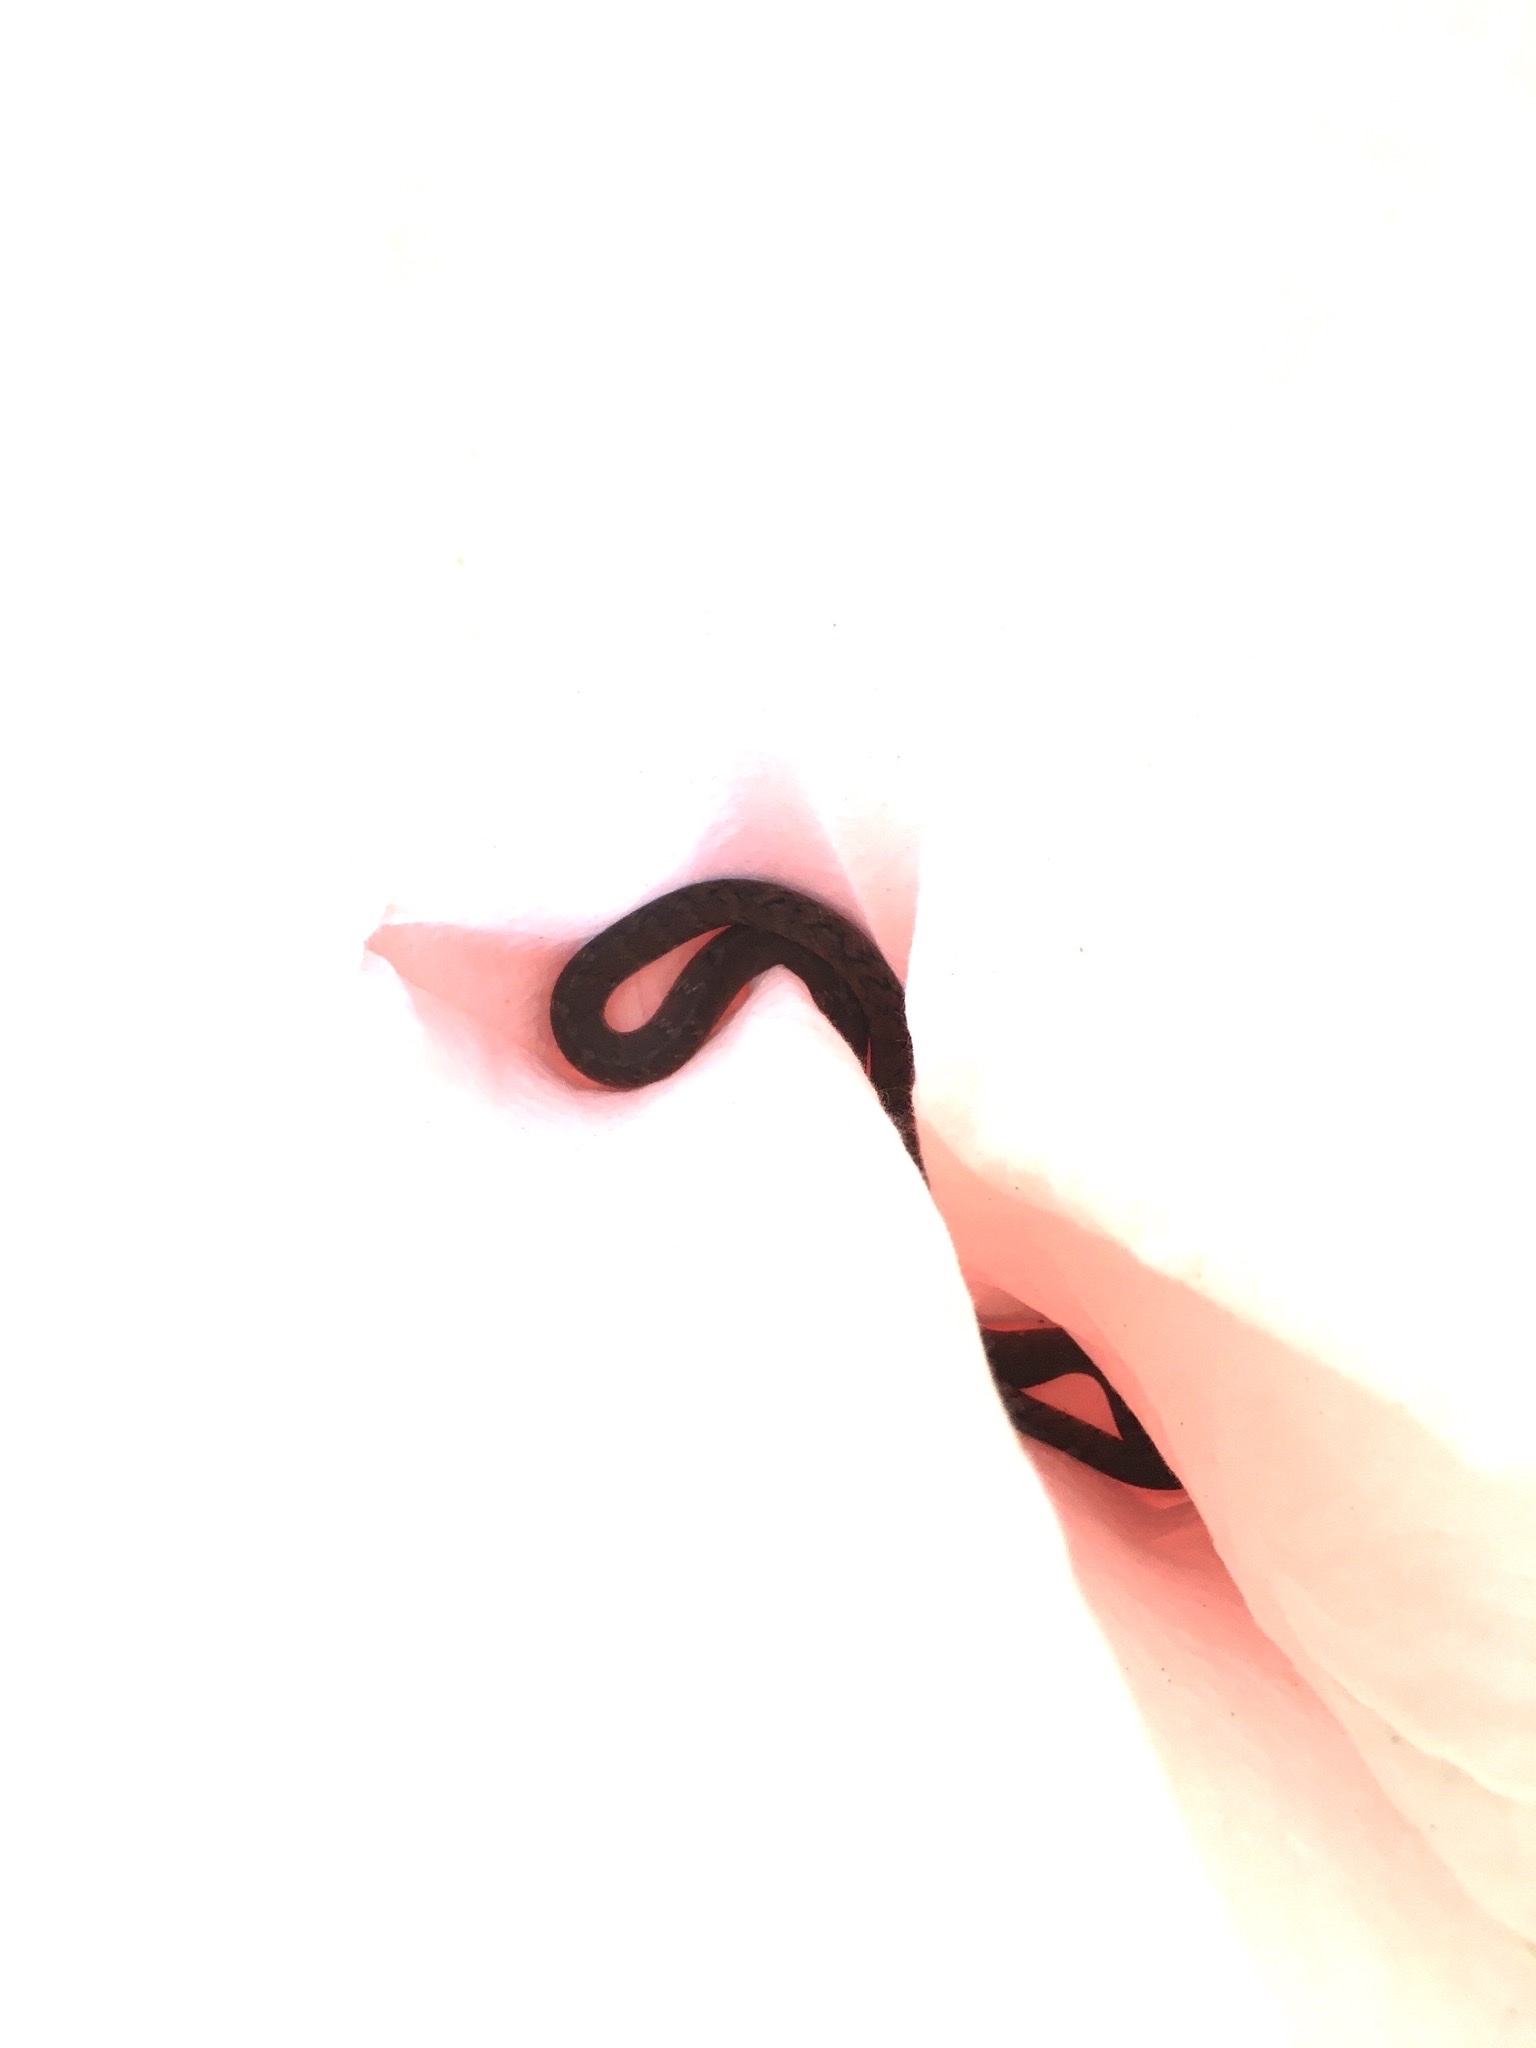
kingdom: Animalia
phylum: Chordata
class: Squamata
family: Colubridae
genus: Ptyas
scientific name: Ptyas mucosa
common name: Oriental ratsnake
